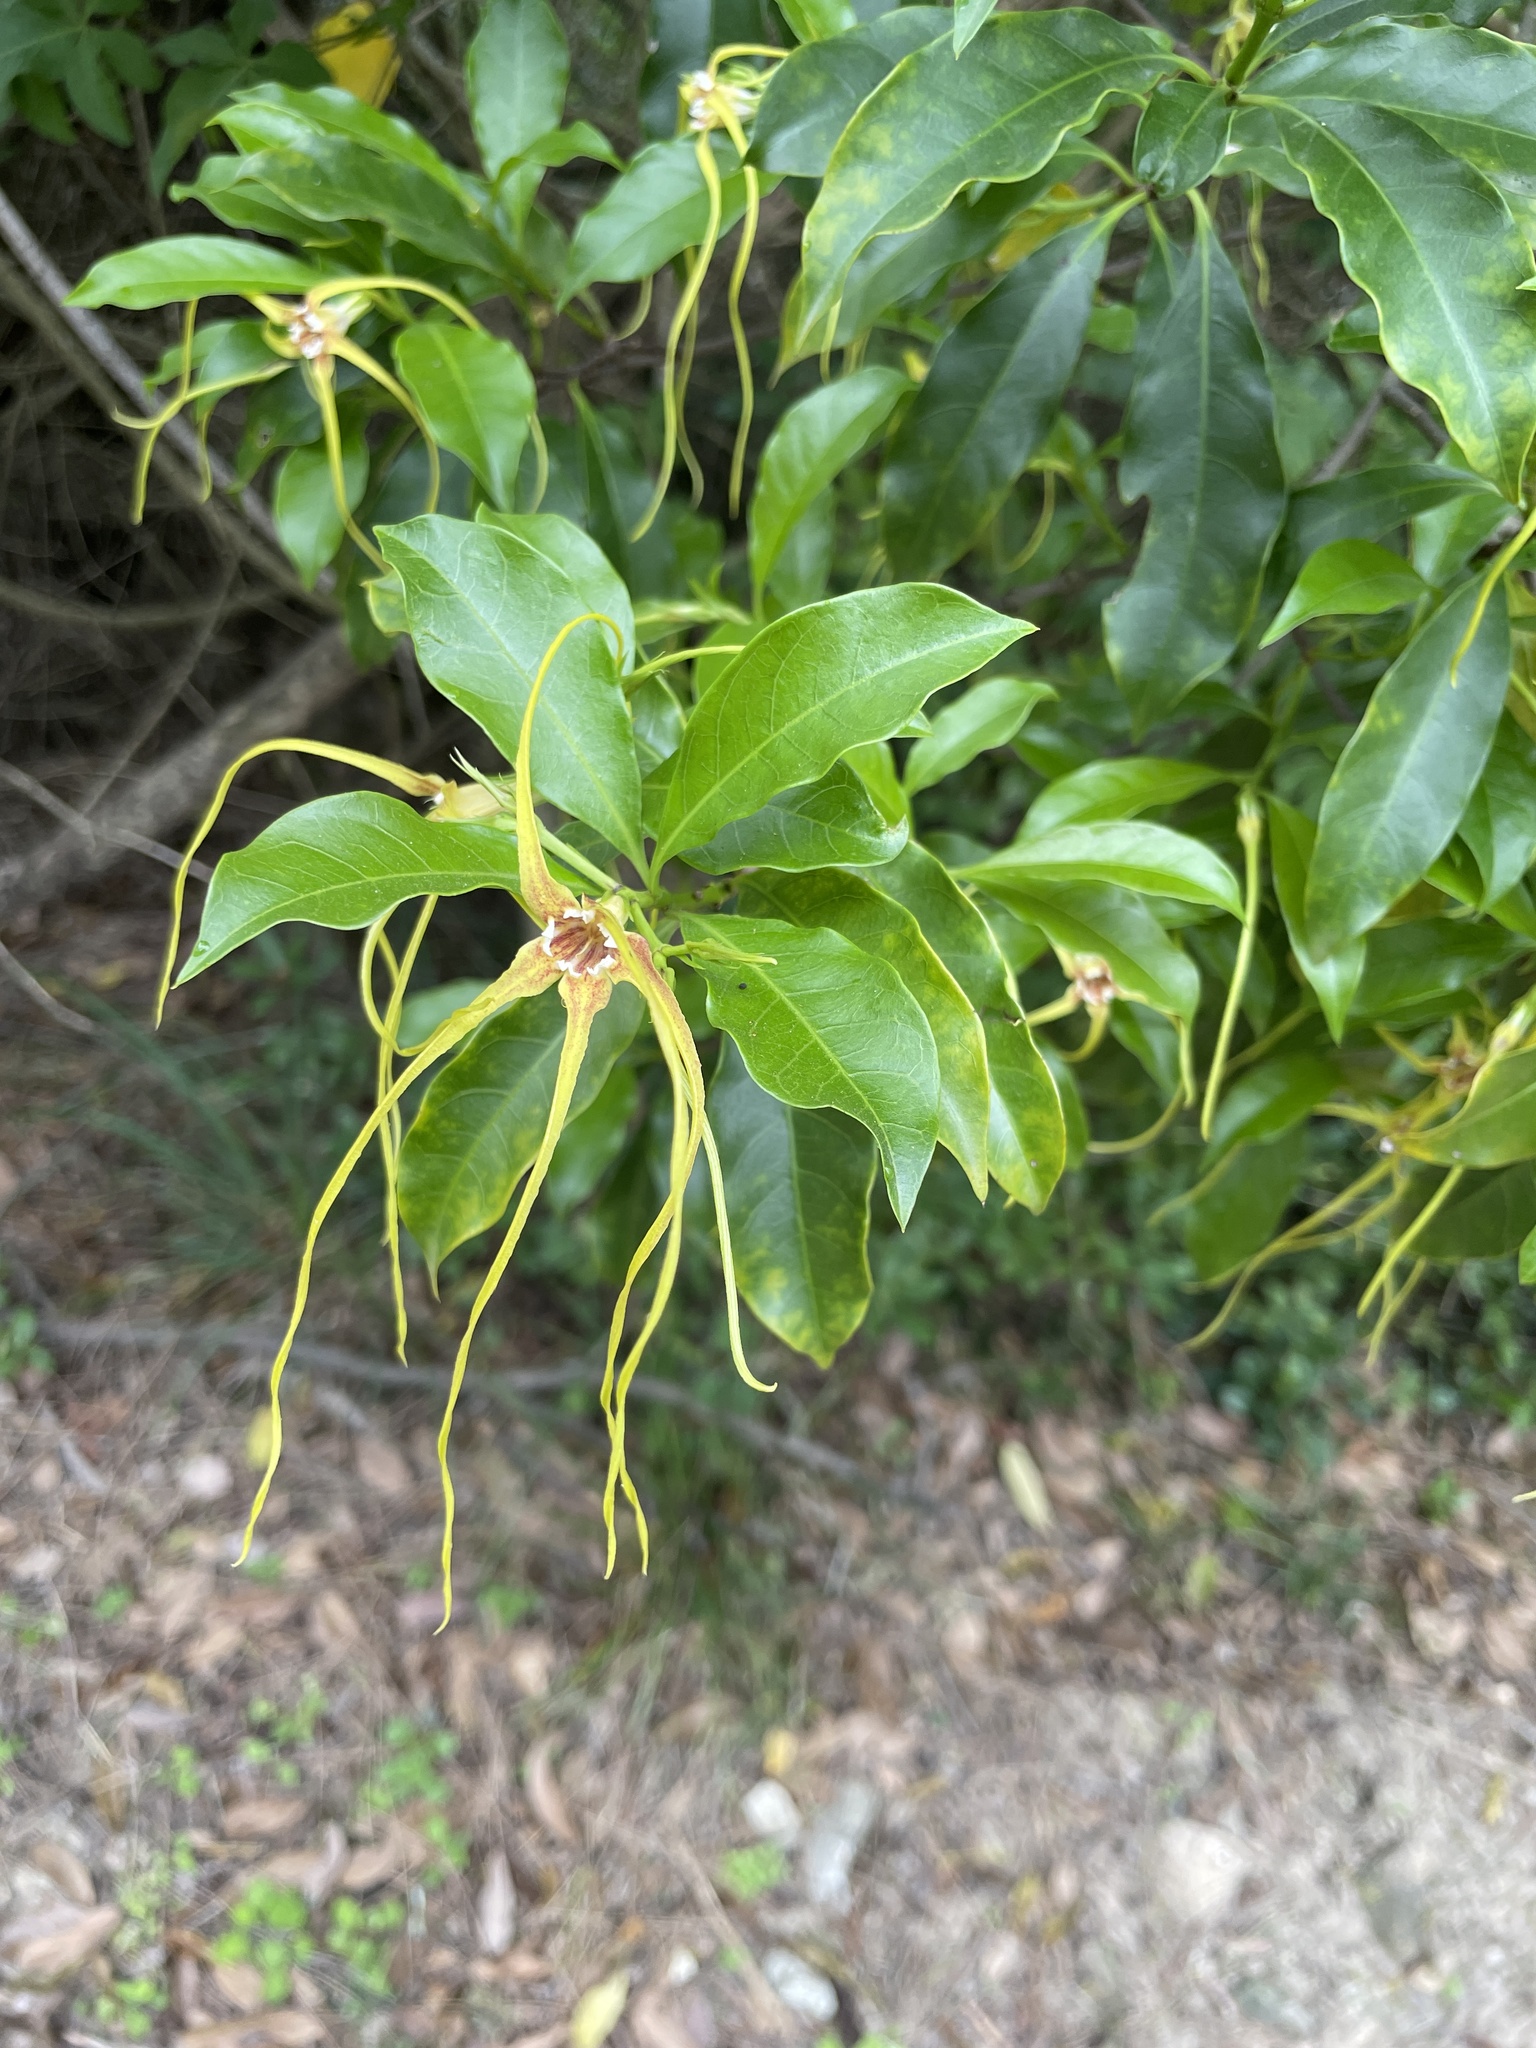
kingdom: Plantae
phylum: Tracheophyta
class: Magnoliopsida
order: Gentianales
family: Apocynaceae
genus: Strophanthus
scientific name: Strophanthus divaricatus
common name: Goat-horns
